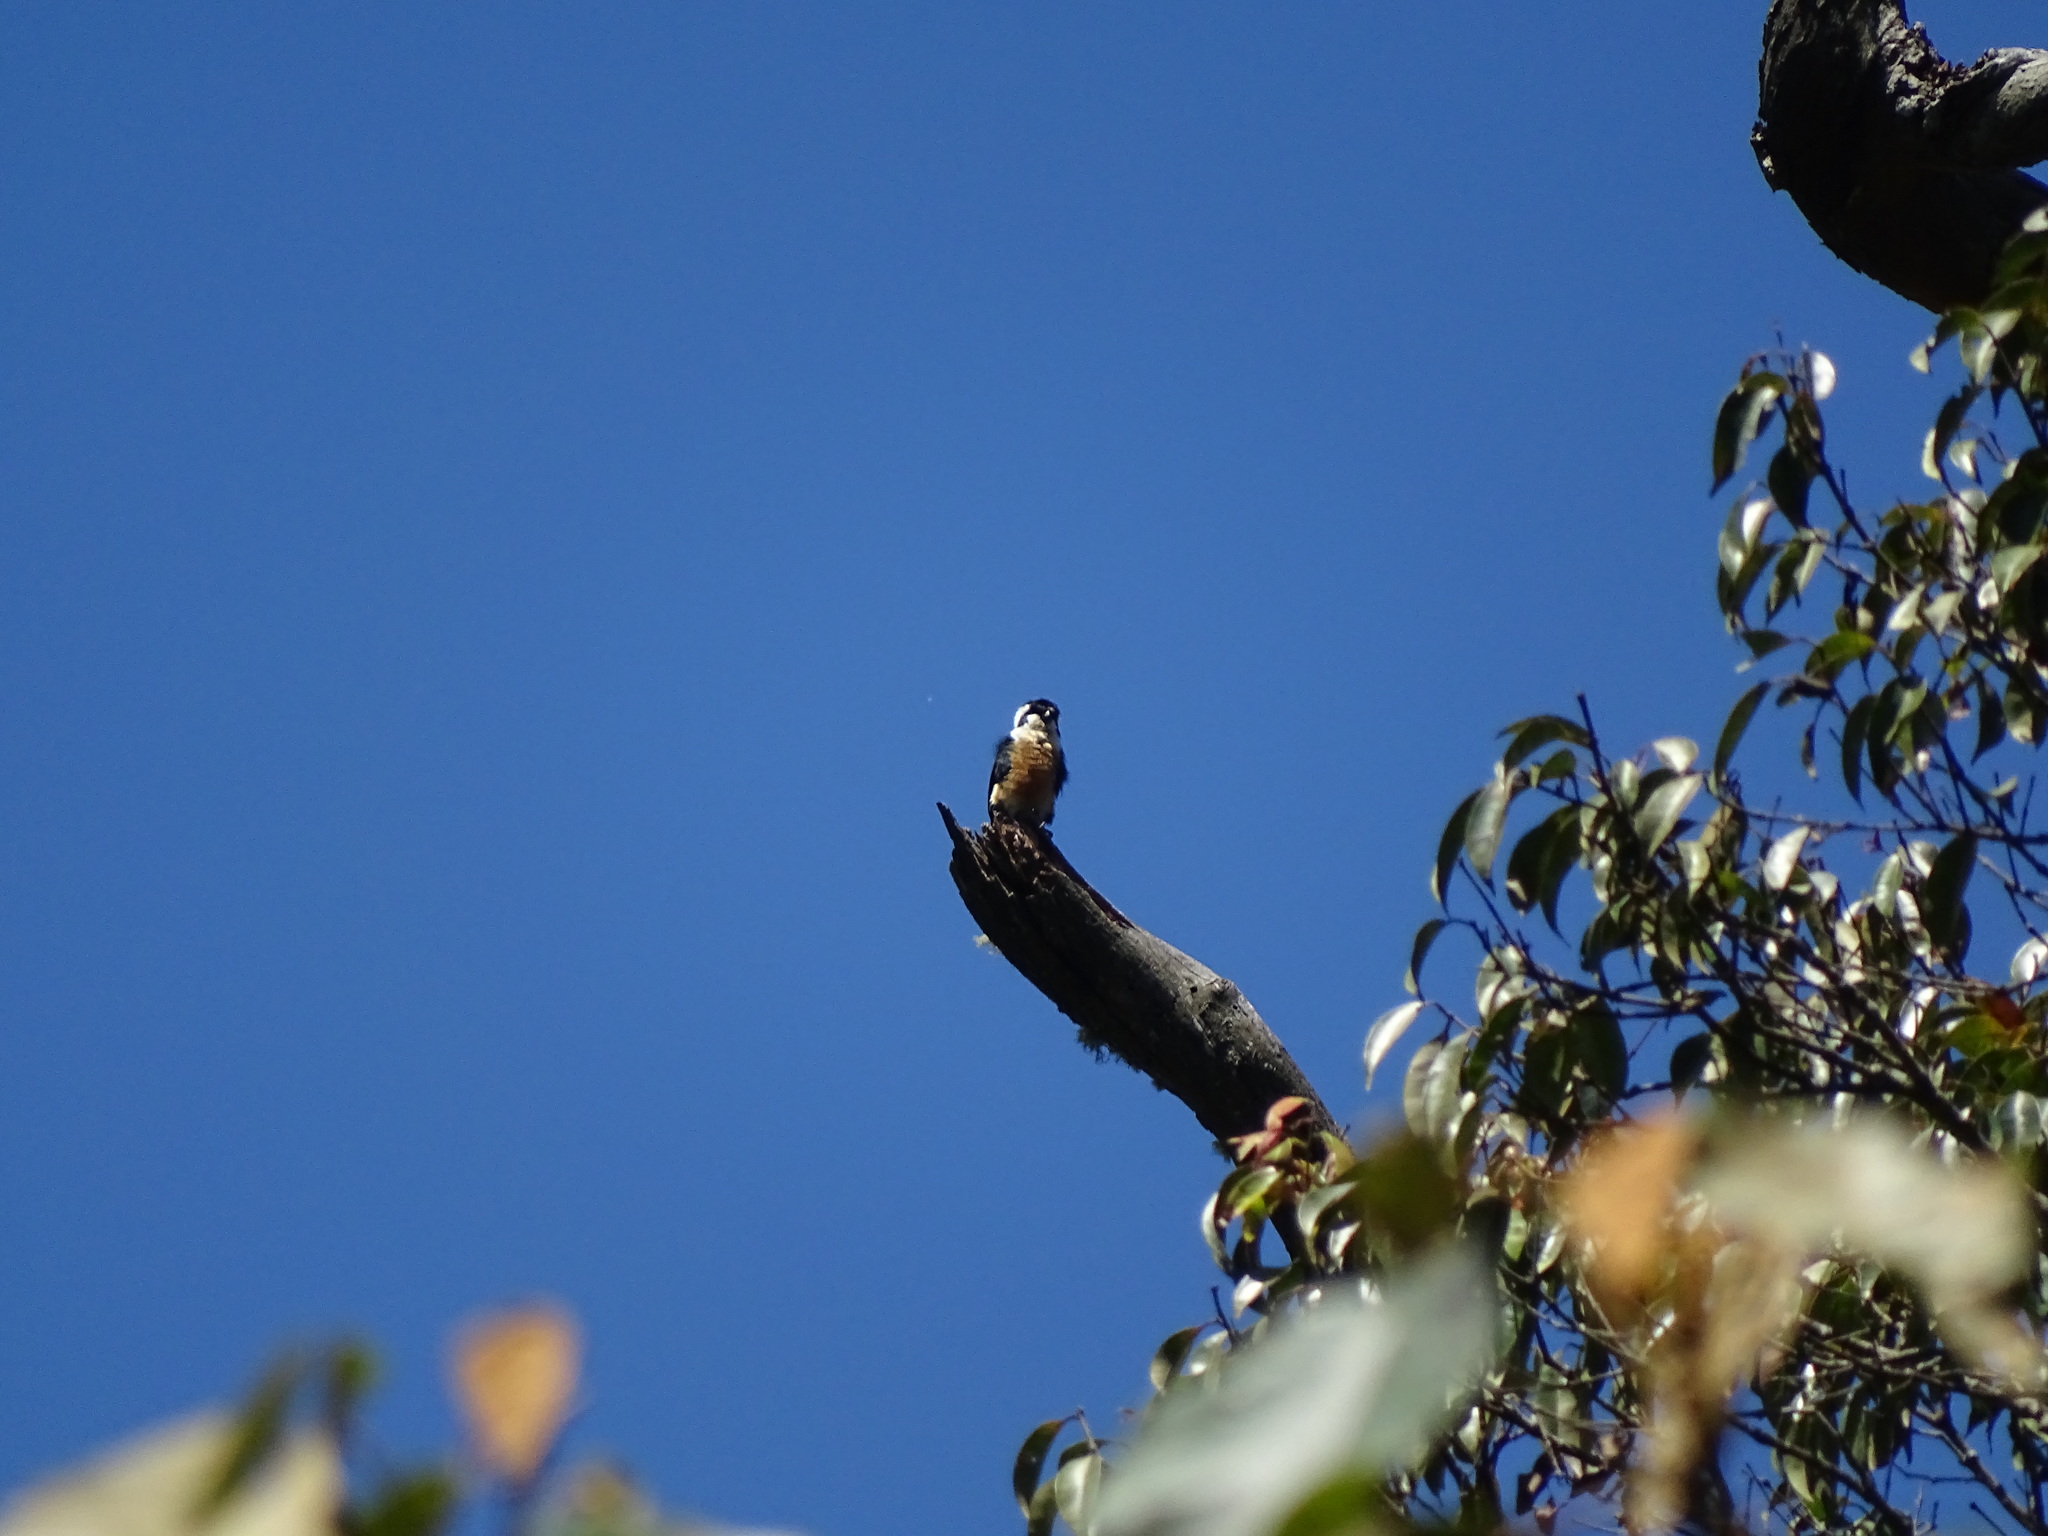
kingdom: Animalia
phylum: Chordata
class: Aves
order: Falconiformes
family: Falconidae
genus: Microhierax
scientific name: Microhierax fringillarius
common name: Black-thighed falconet
